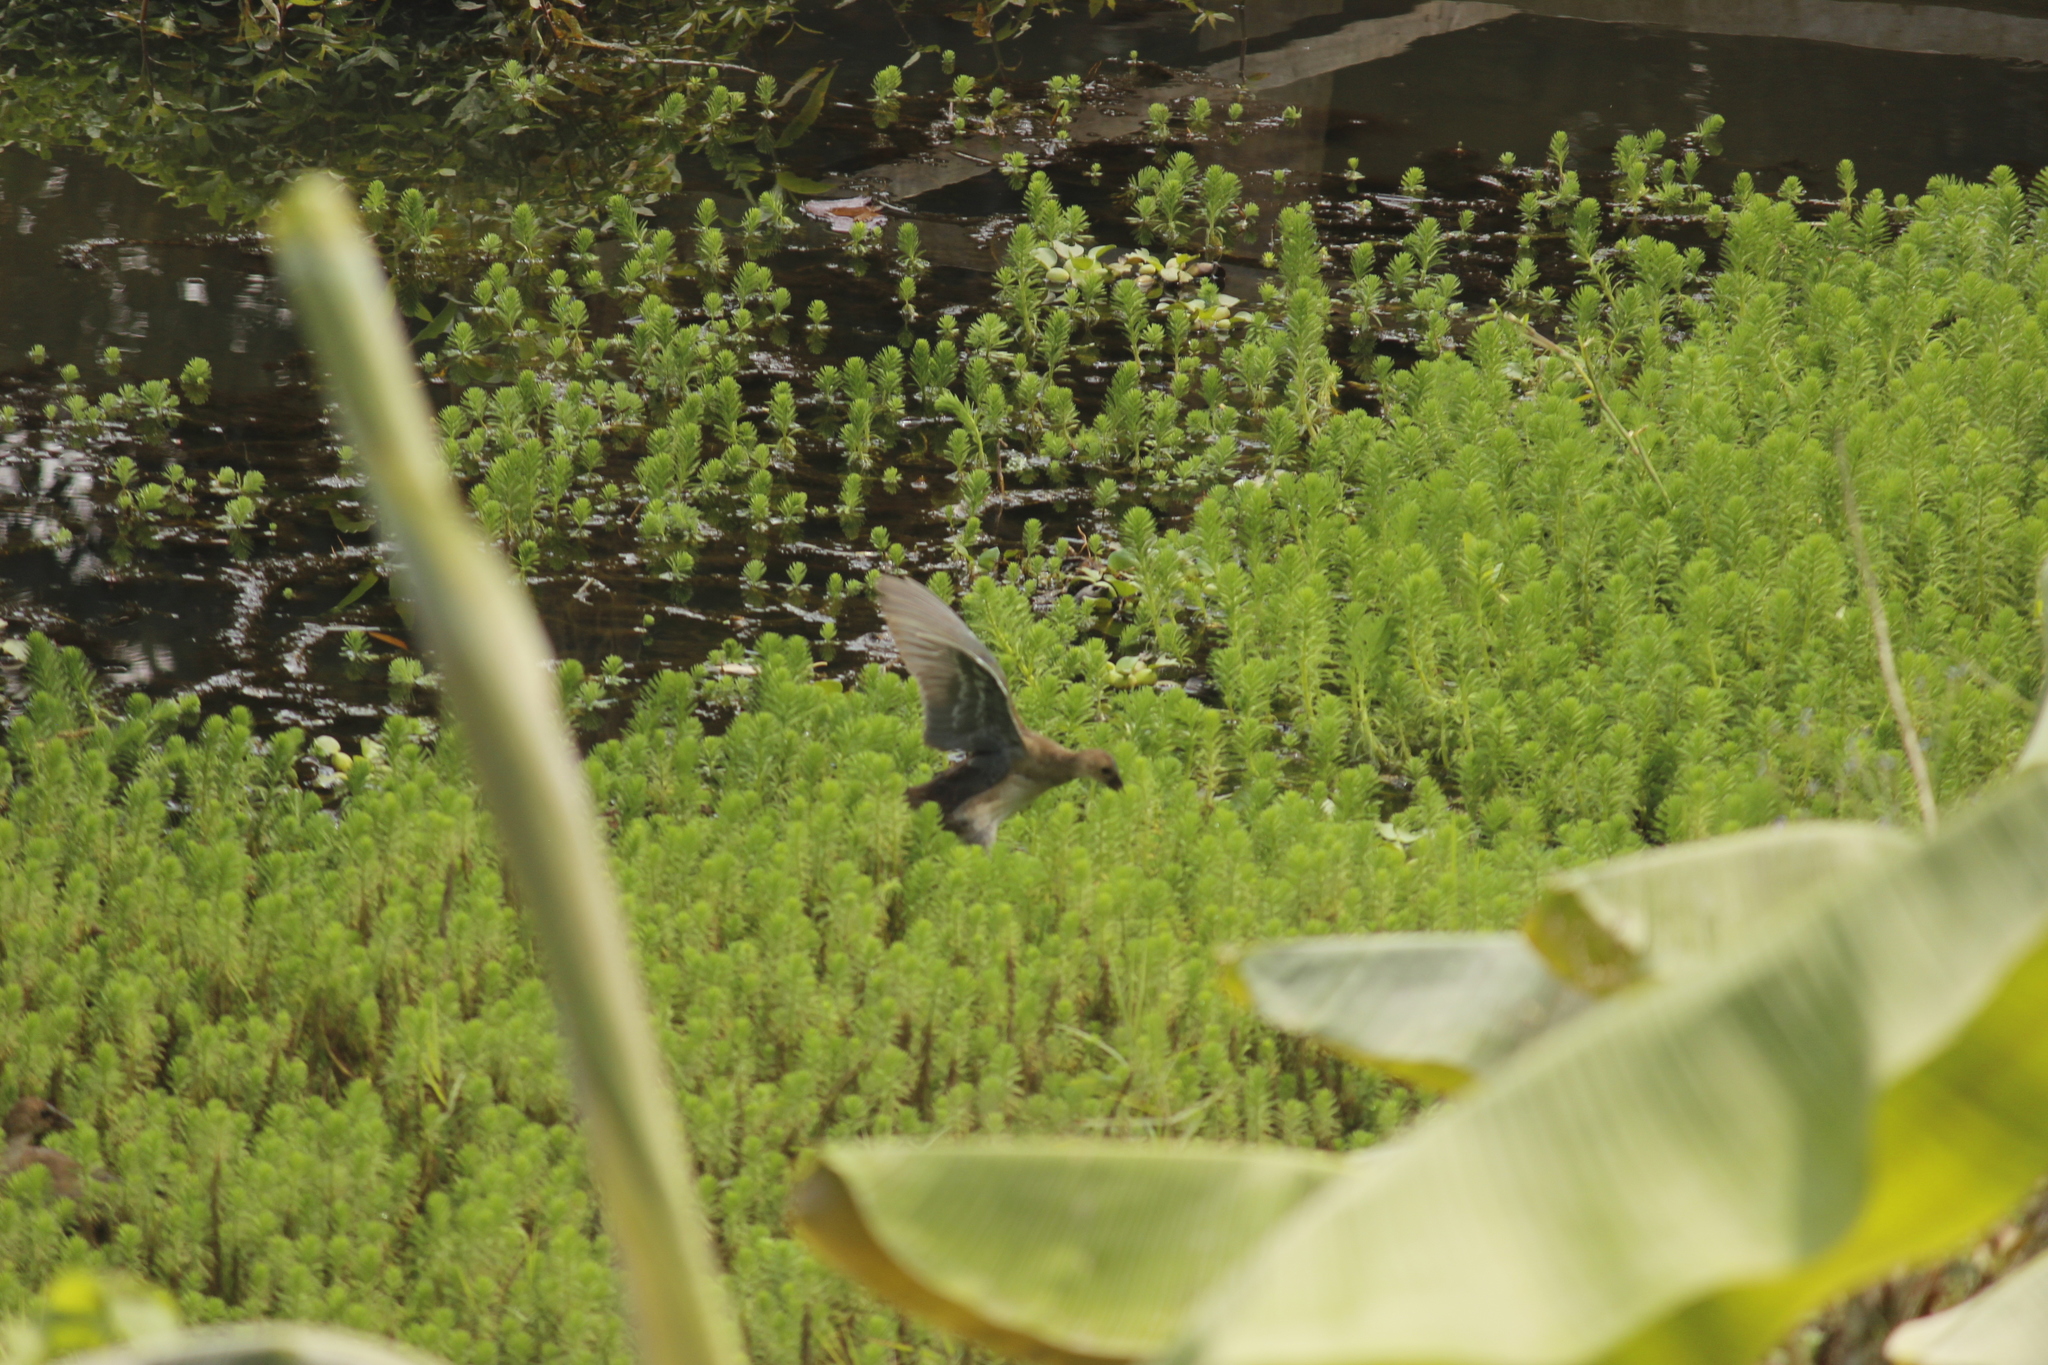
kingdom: Animalia
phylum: Chordata
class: Aves
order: Gruiformes
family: Rallidae
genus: Porphyrio
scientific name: Porphyrio martinica
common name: Purple gallinule
